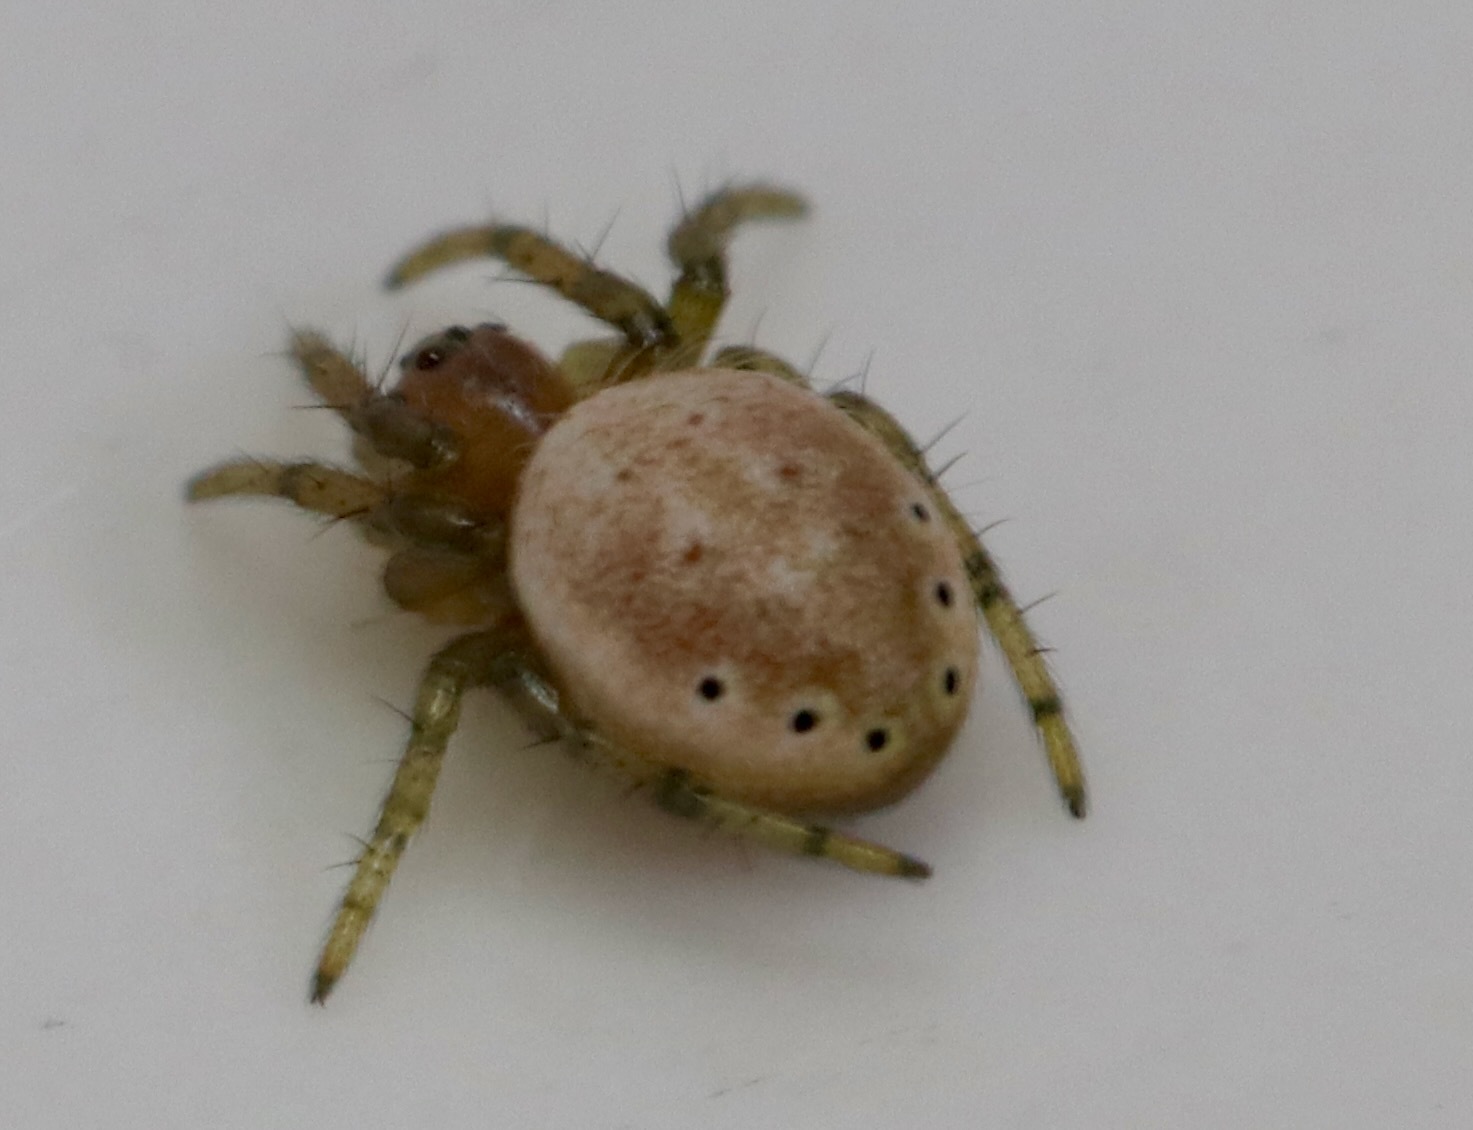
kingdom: Animalia
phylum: Arthropoda
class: Arachnida
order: Araneae
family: Araneidae
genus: Araniella
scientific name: Araniella displicata
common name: Sixspotted orb weaver
